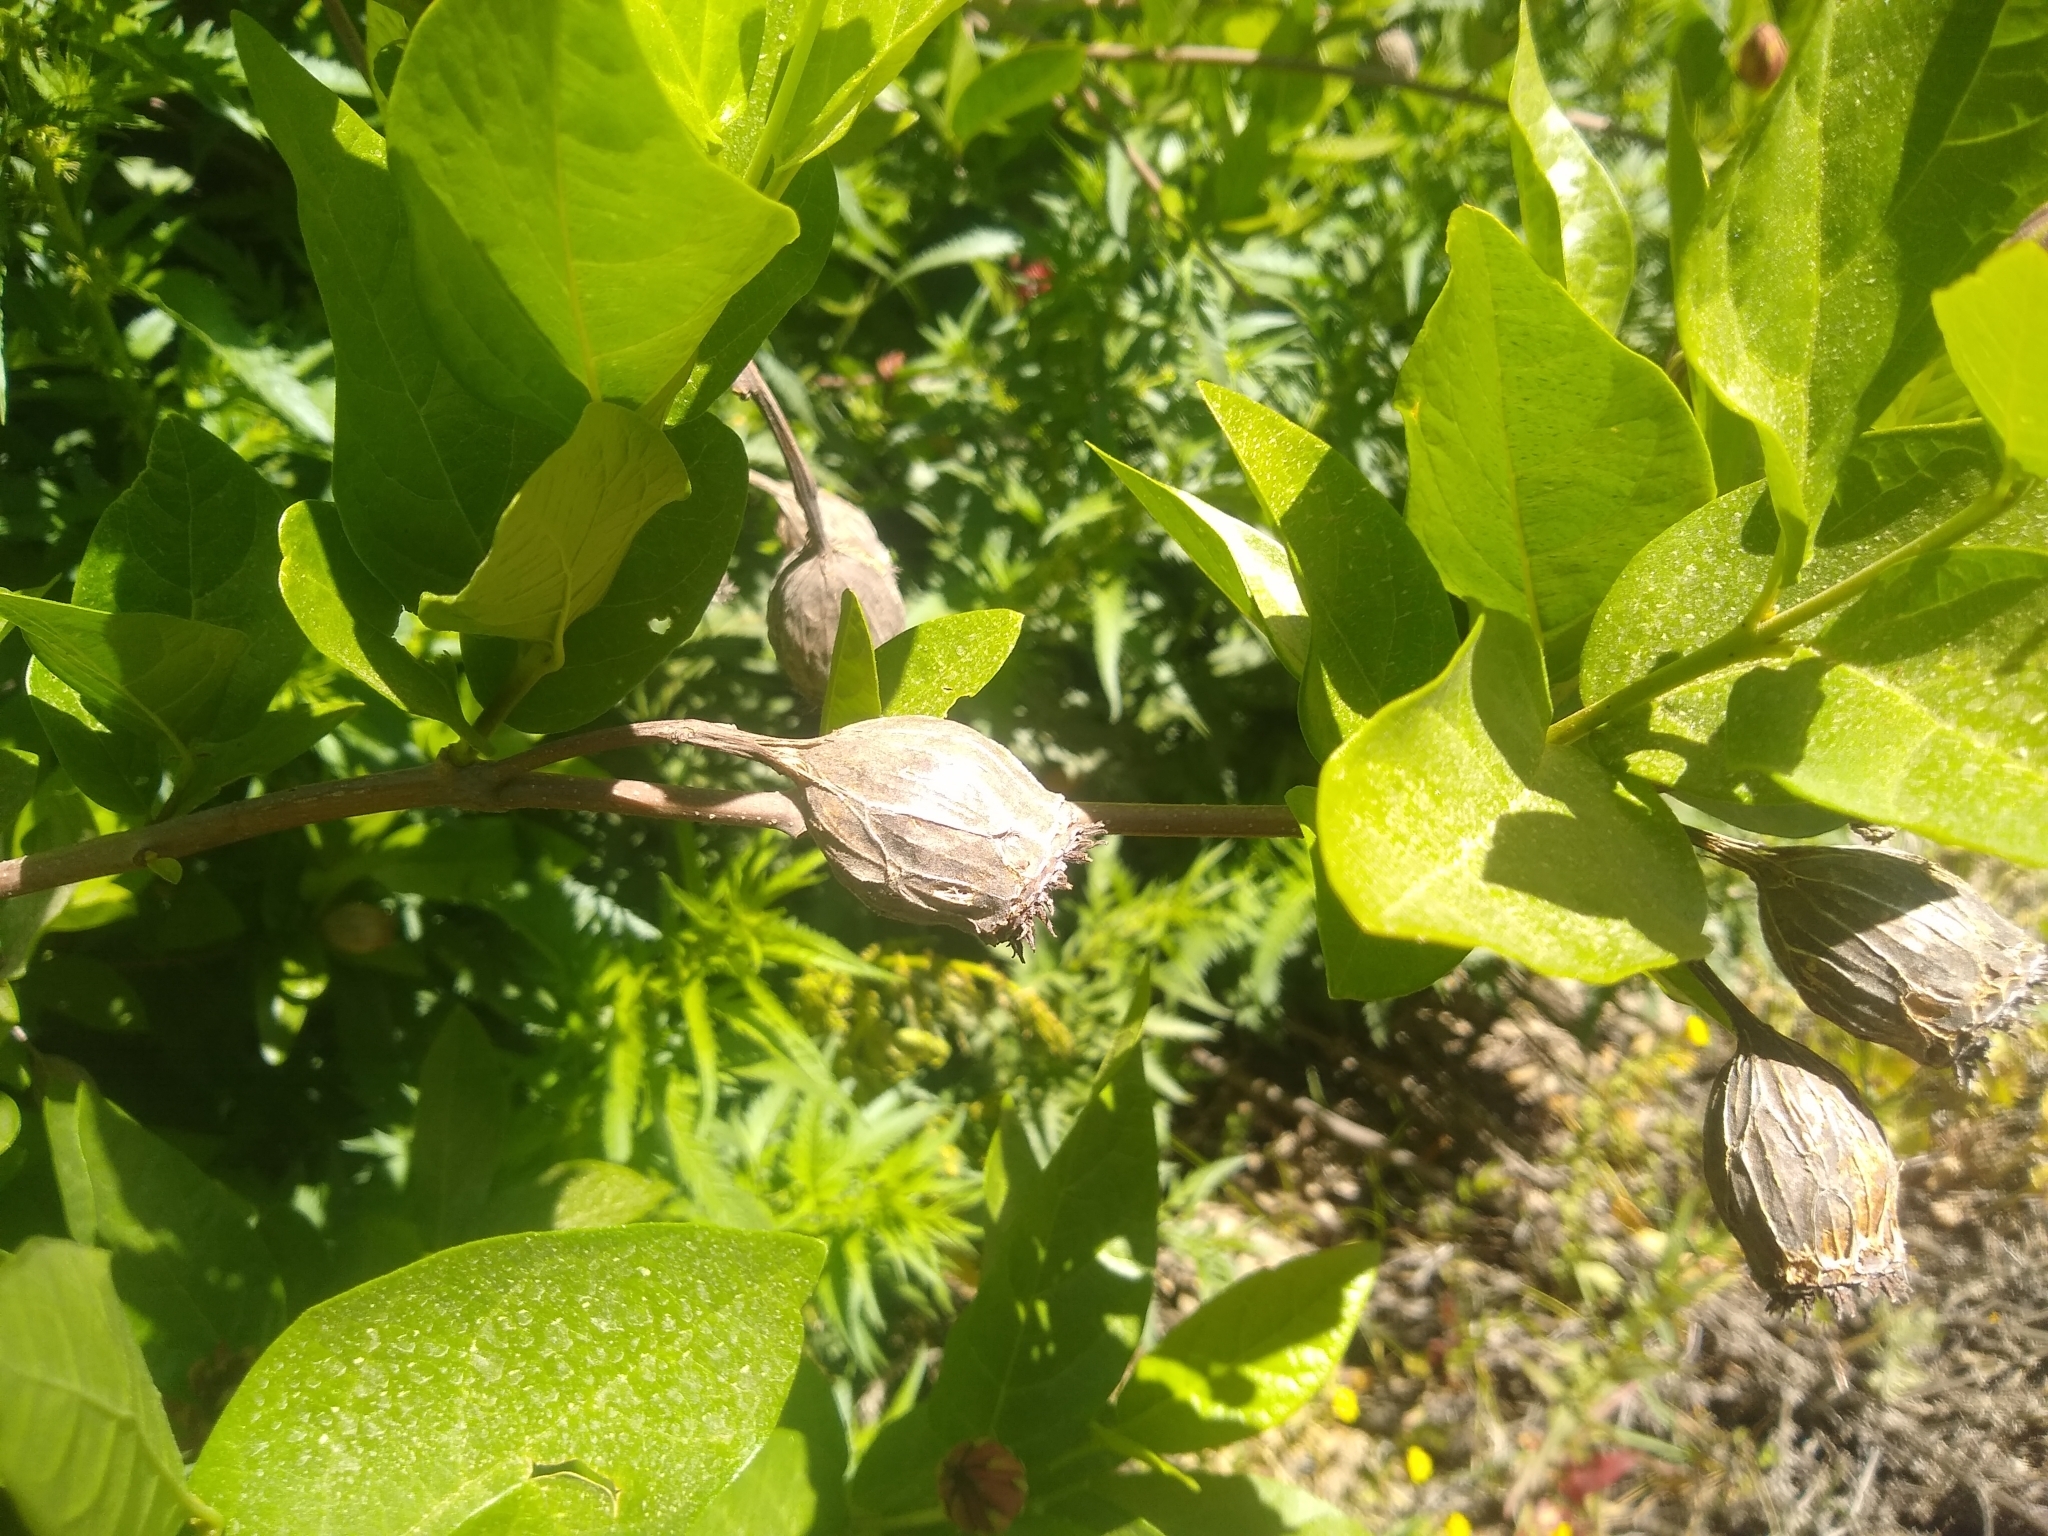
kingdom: Plantae
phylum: Tracheophyta
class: Magnoliopsida
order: Laurales
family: Calycanthaceae
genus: Calycanthus
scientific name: Calycanthus occidentalis
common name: California spicebush
